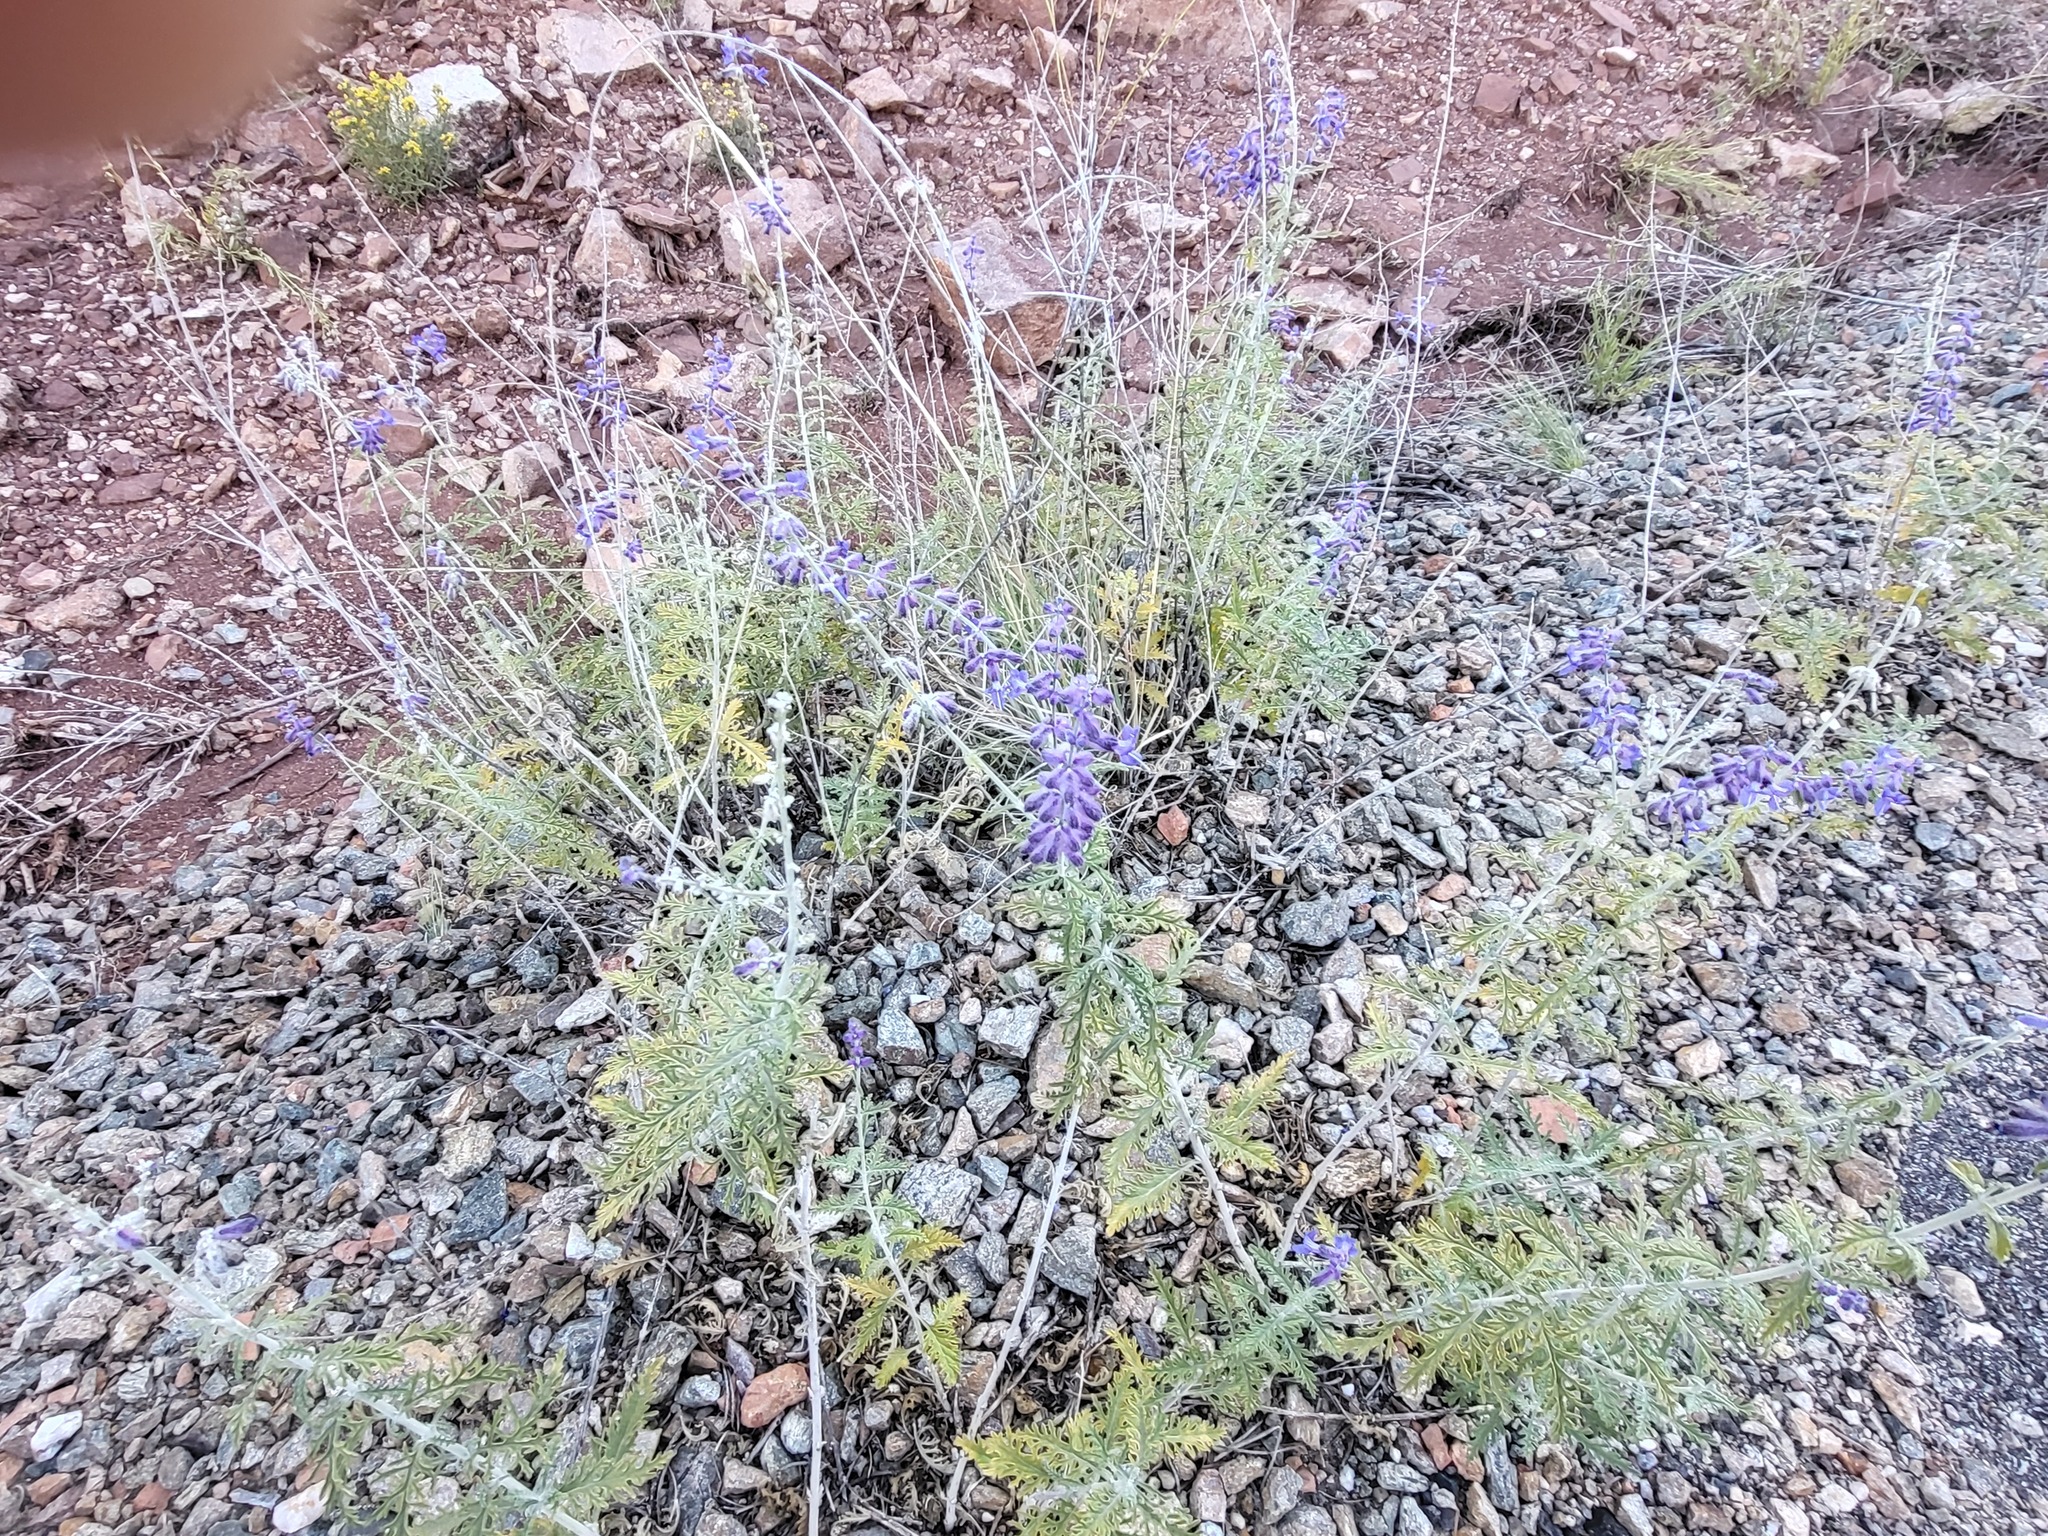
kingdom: Plantae
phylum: Tracheophyta
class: Magnoliopsida
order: Lamiales
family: Lamiaceae
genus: Salvia
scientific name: Salvia
